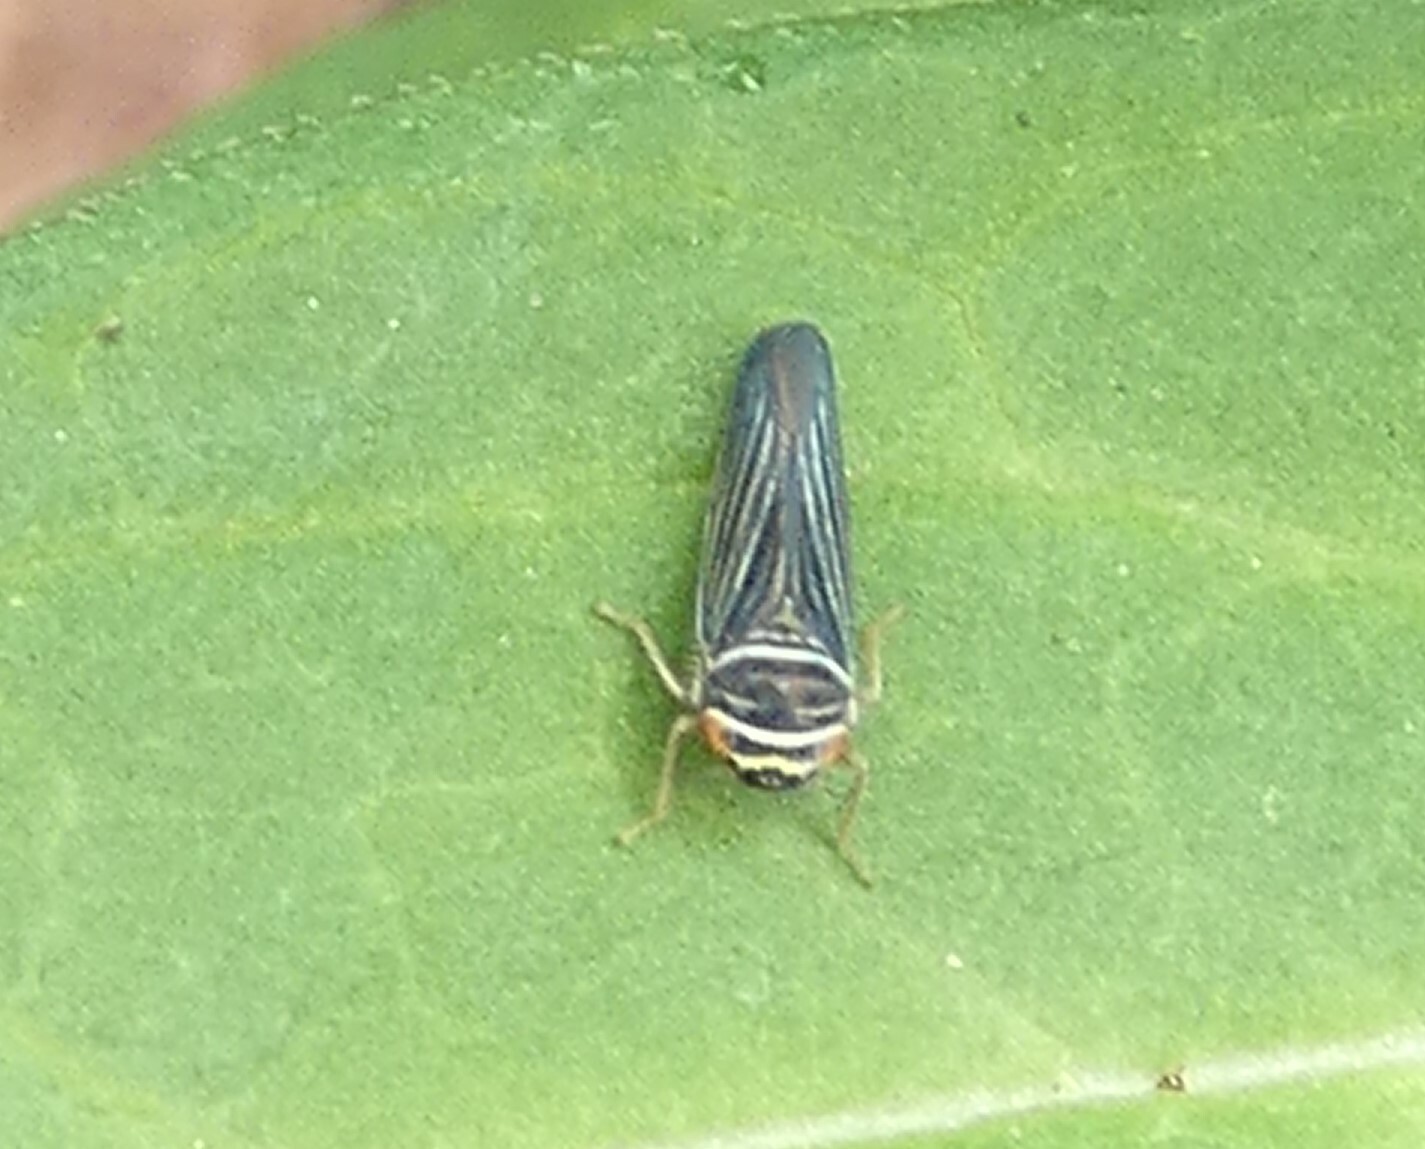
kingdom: Animalia
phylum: Arthropoda
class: Insecta
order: Hemiptera
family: Cicadellidae
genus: Tylozygus
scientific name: Tylozygus bifidus
